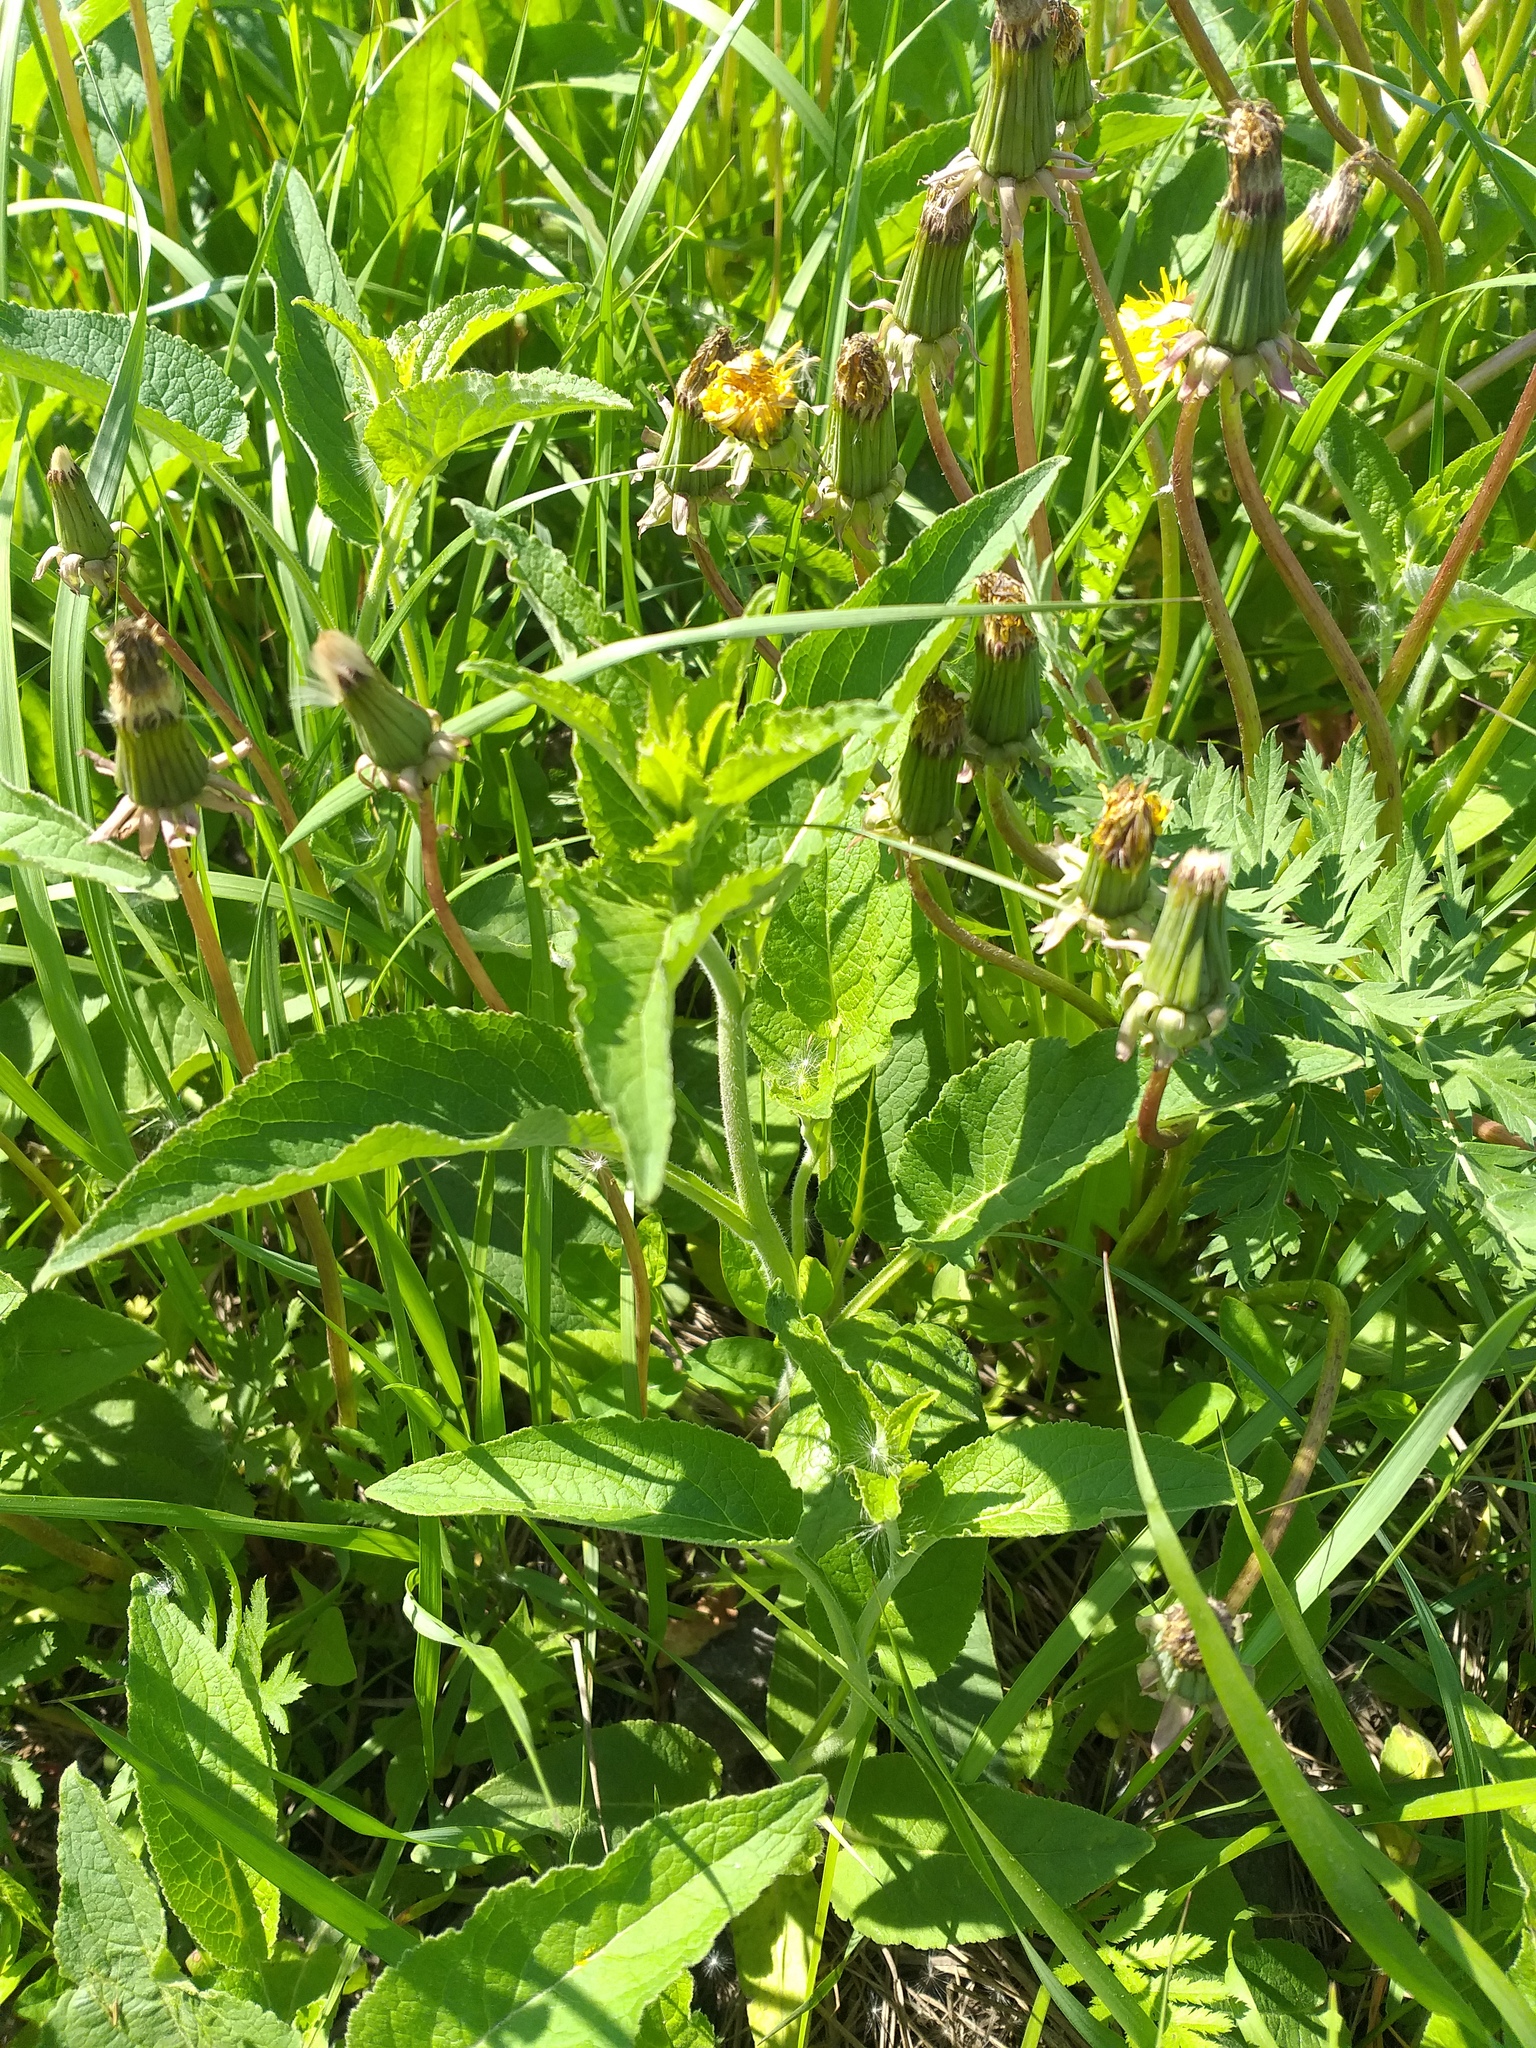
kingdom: Plantae
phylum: Tracheophyta
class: Magnoliopsida
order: Asterales
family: Campanulaceae
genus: Campanula
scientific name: Campanula bononiensis
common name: Pale bellflower
